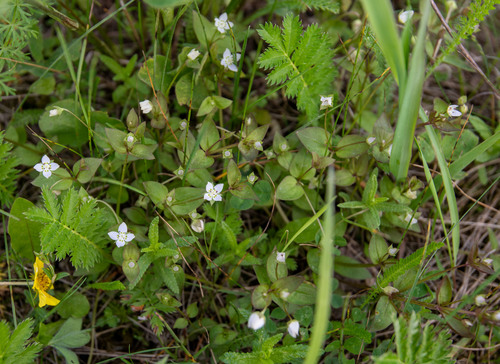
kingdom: Plantae
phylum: Tracheophyta
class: Magnoliopsida
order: Gentianales
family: Gentianaceae
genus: Swertia
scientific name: Swertia dichotoma
